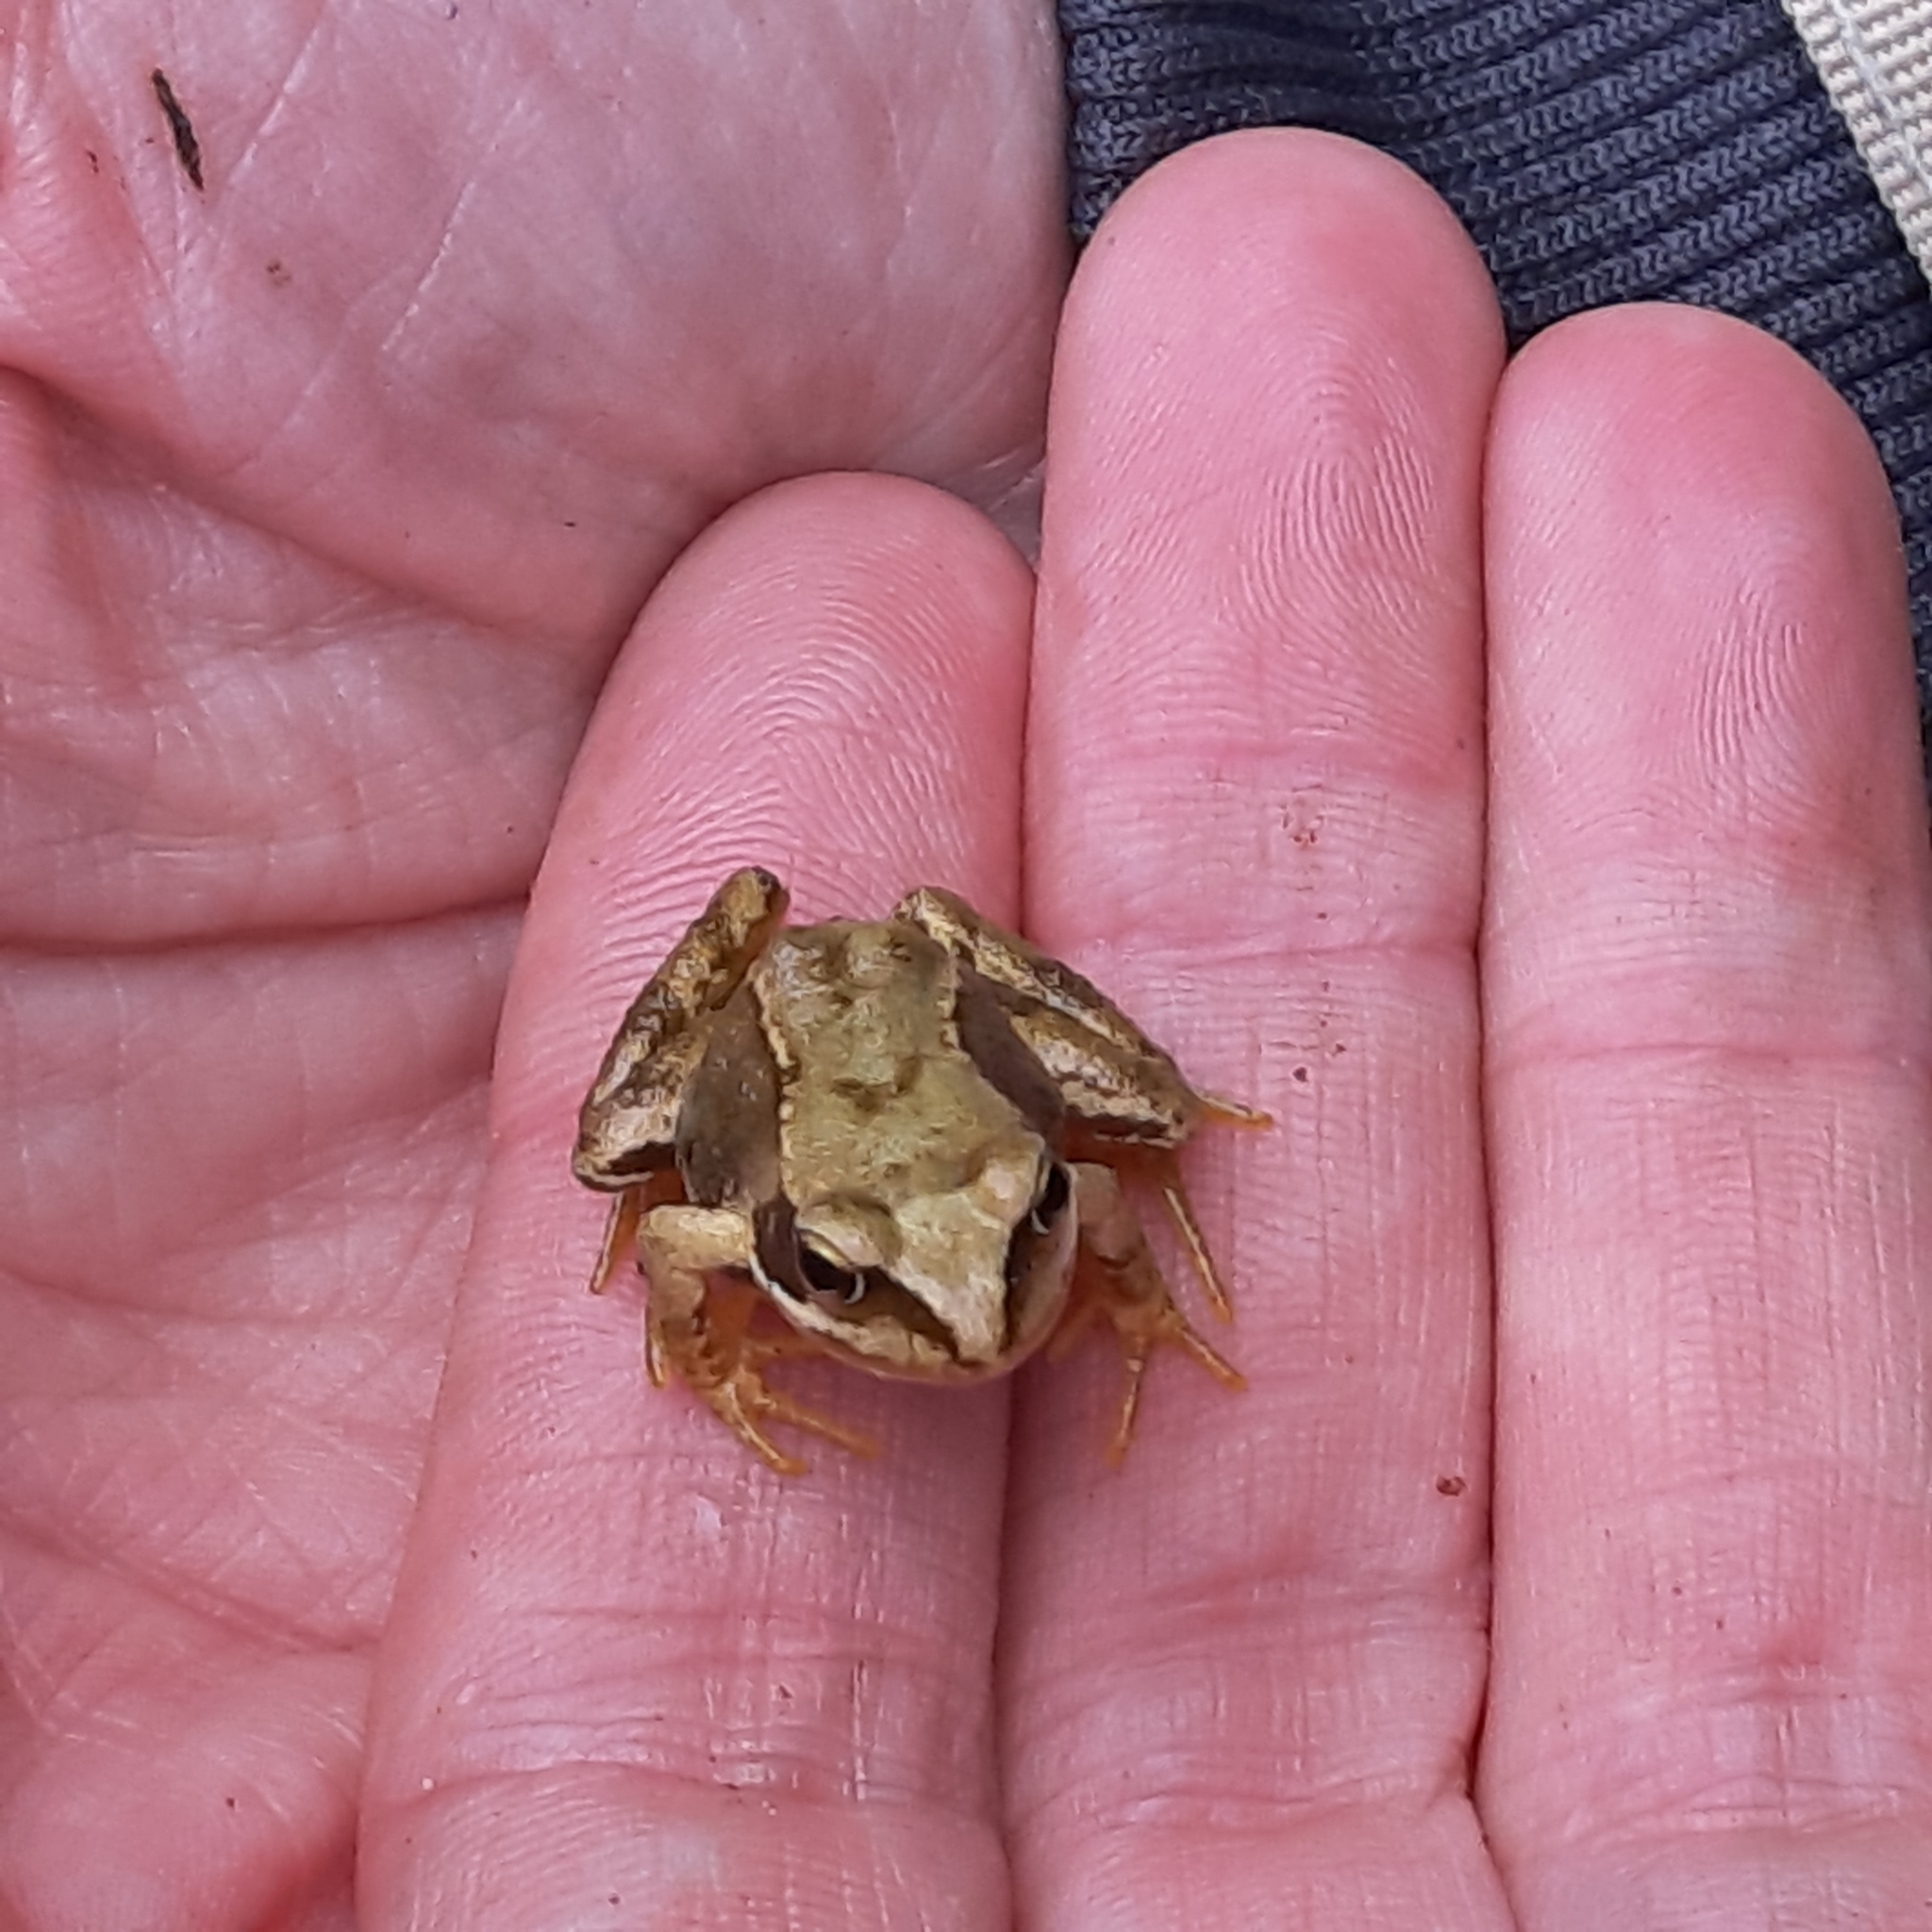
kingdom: Animalia
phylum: Chordata
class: Amphibia
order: Anura
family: Ranidae
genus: Rana
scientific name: Rana temporaria
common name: Common frog
